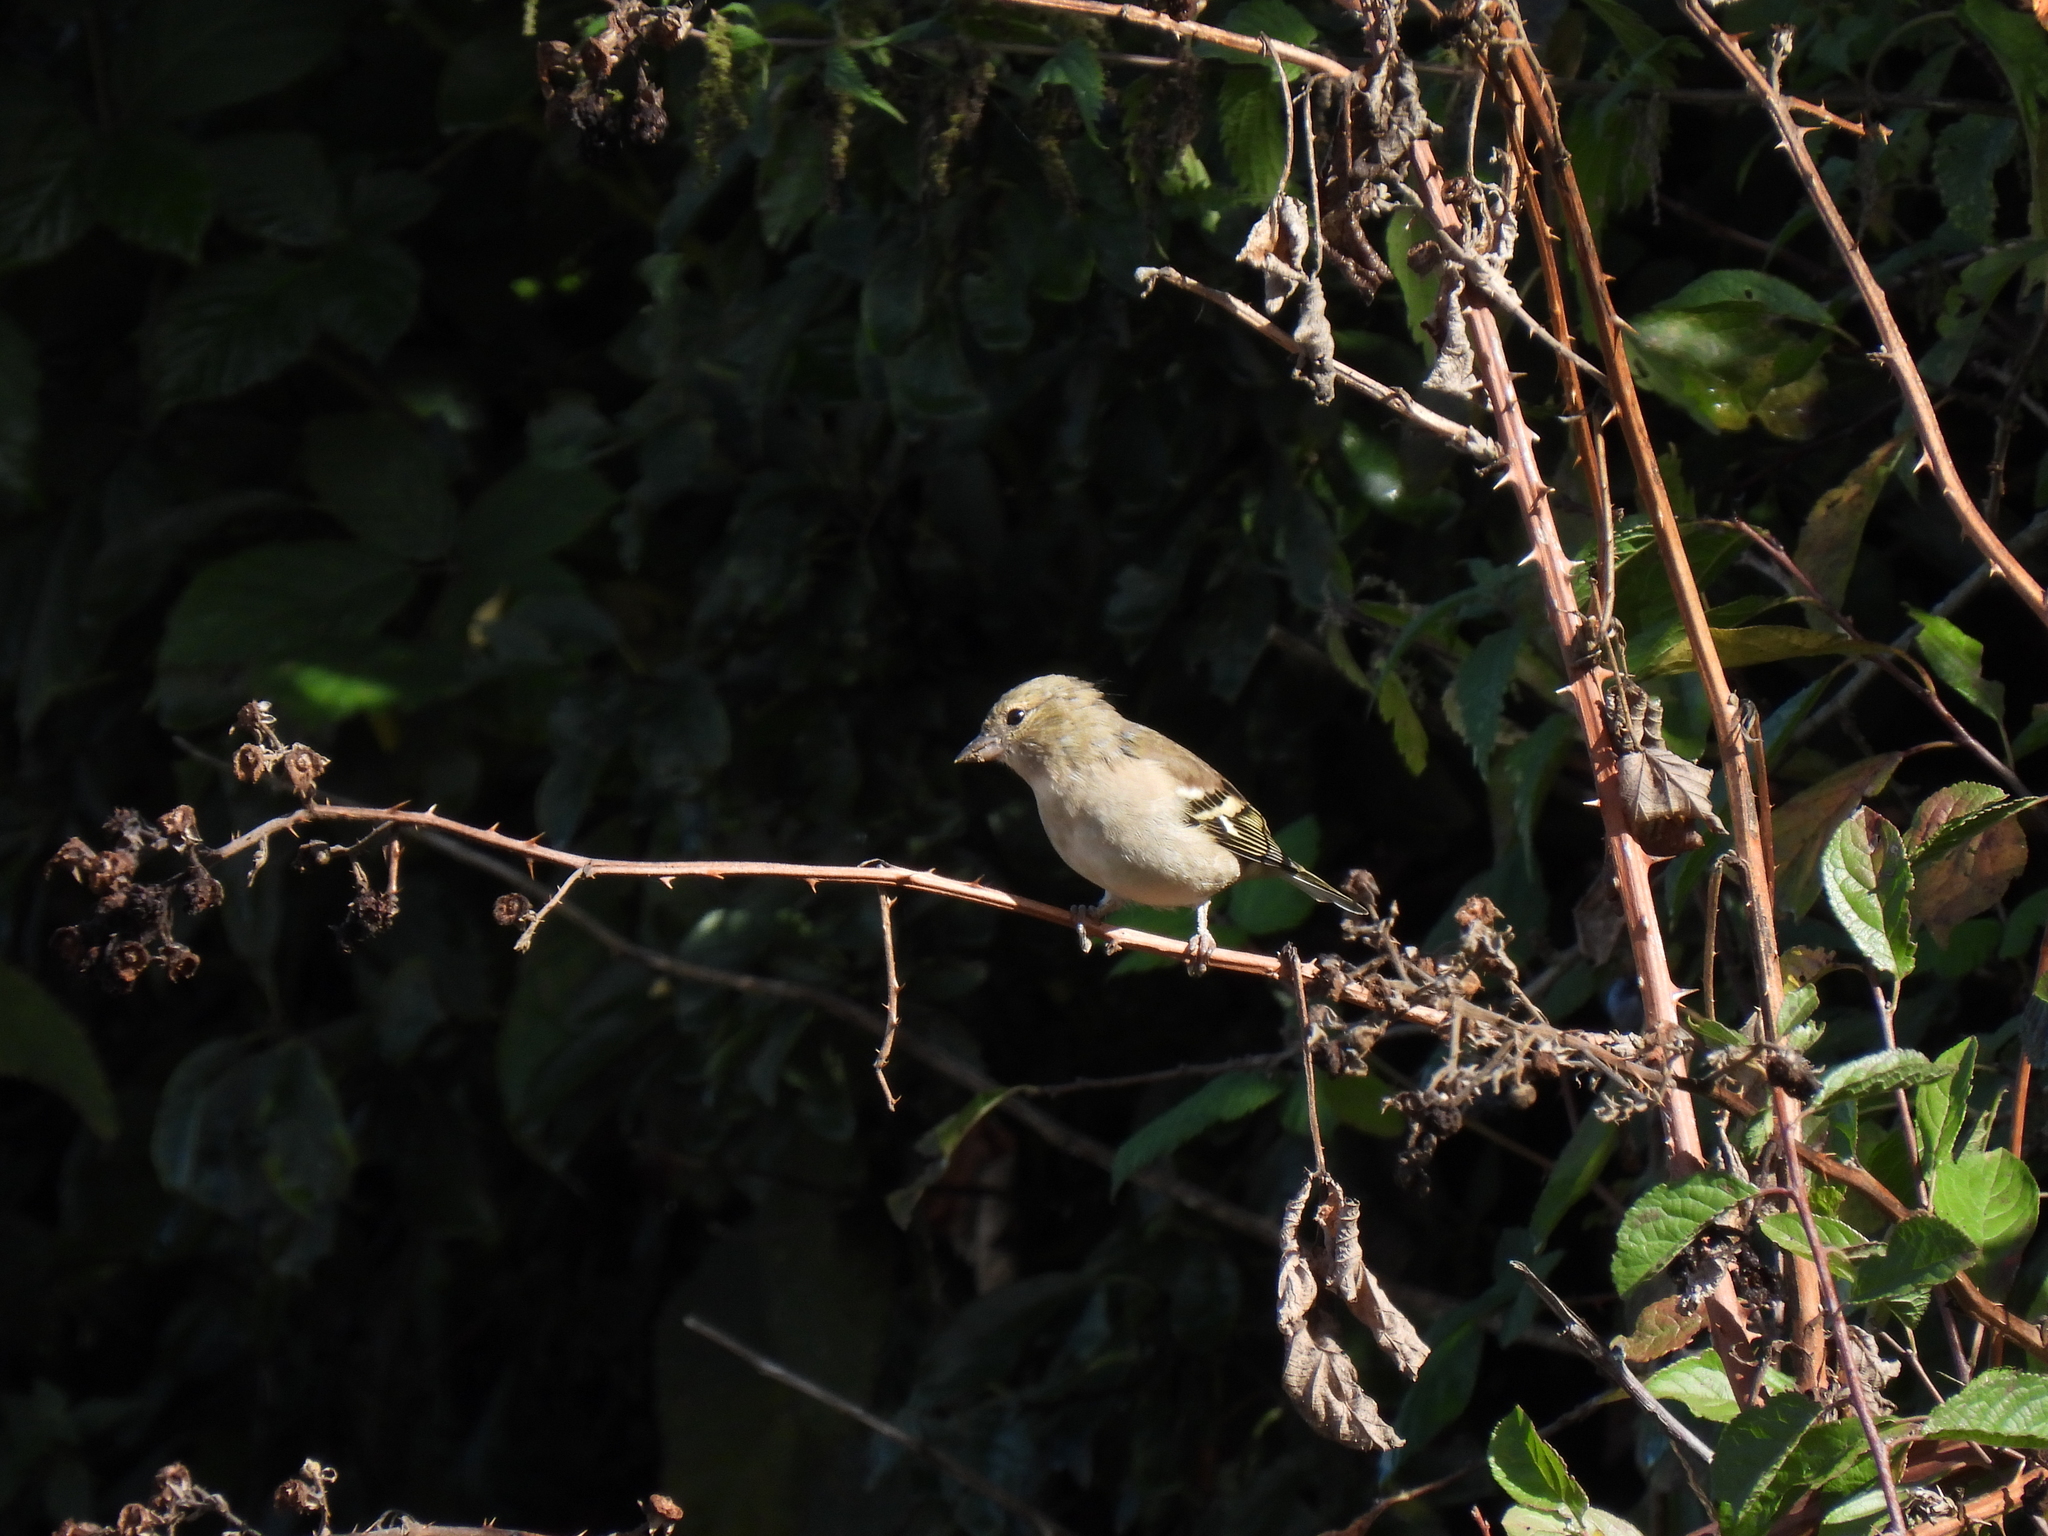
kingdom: Animalia
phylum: Chordata
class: Aves
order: Passeriformes
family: Fringillidae
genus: Fringilla
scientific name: Fringilla coelebs
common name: Common chaffinch
